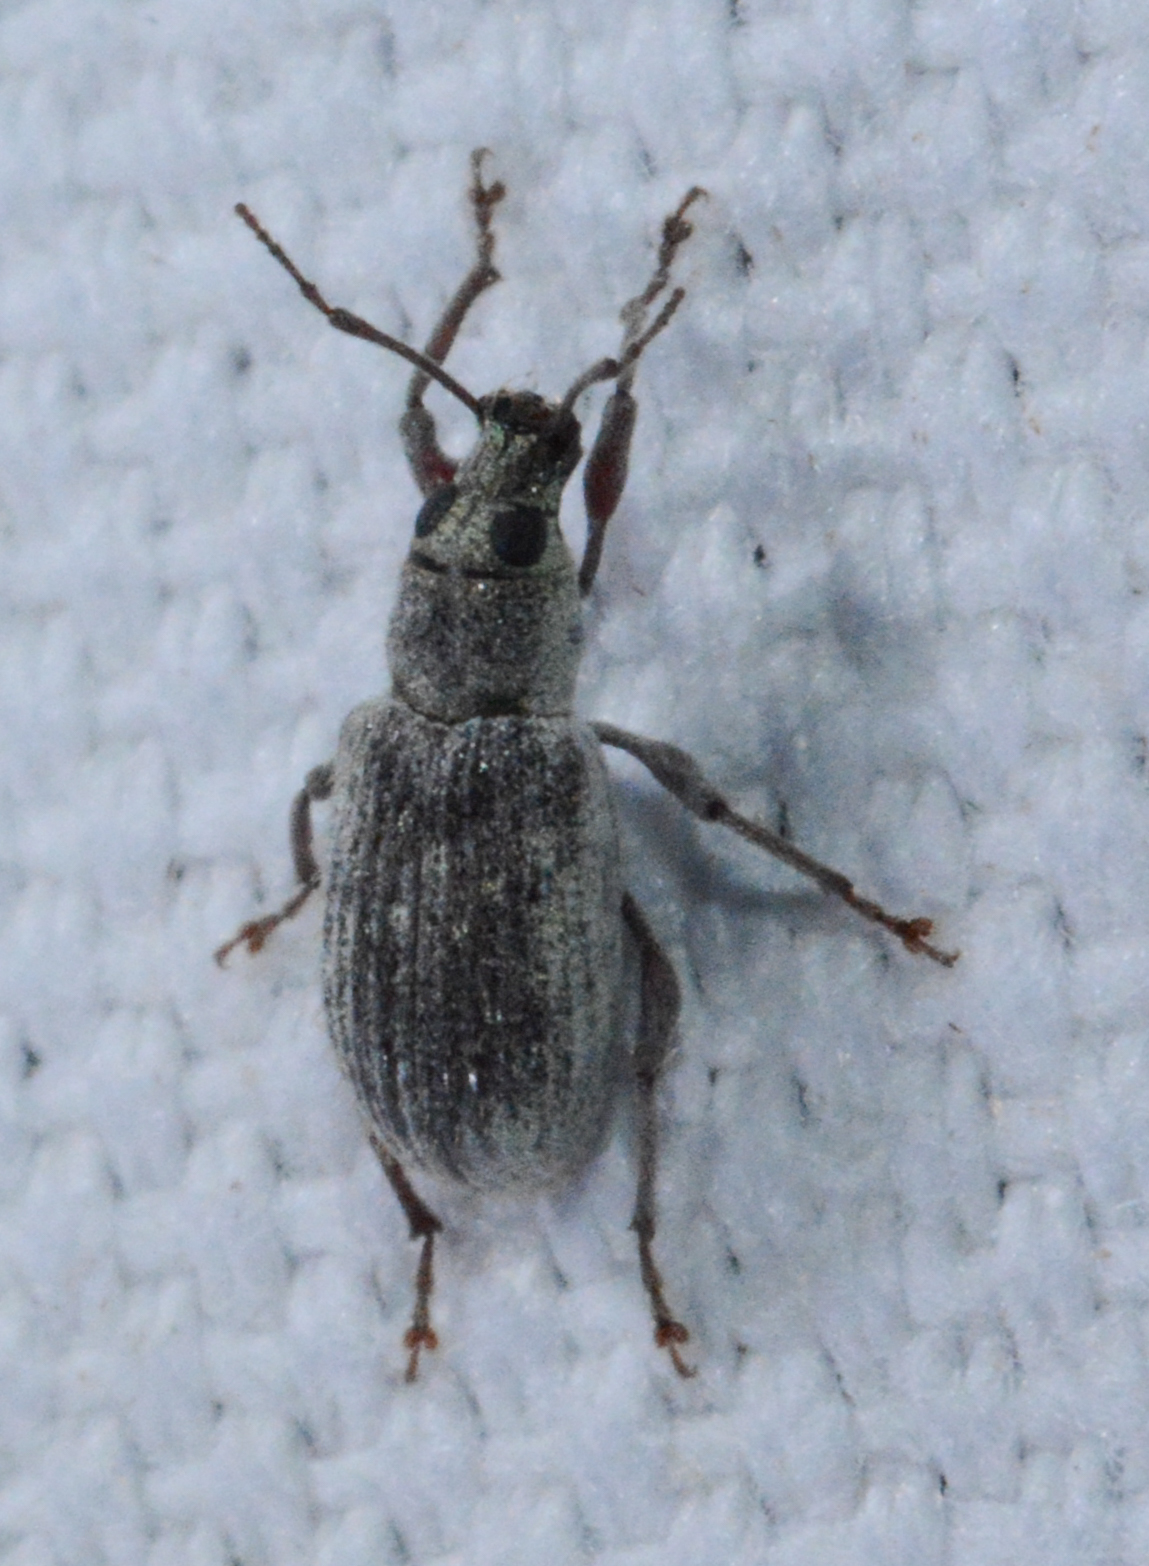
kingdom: Animalia
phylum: Arthropoda
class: Insecta
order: Coleoptera
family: Curculionidae
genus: Cyrtepistomus
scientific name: Cyrtepistomus castaneus
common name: Weevil
